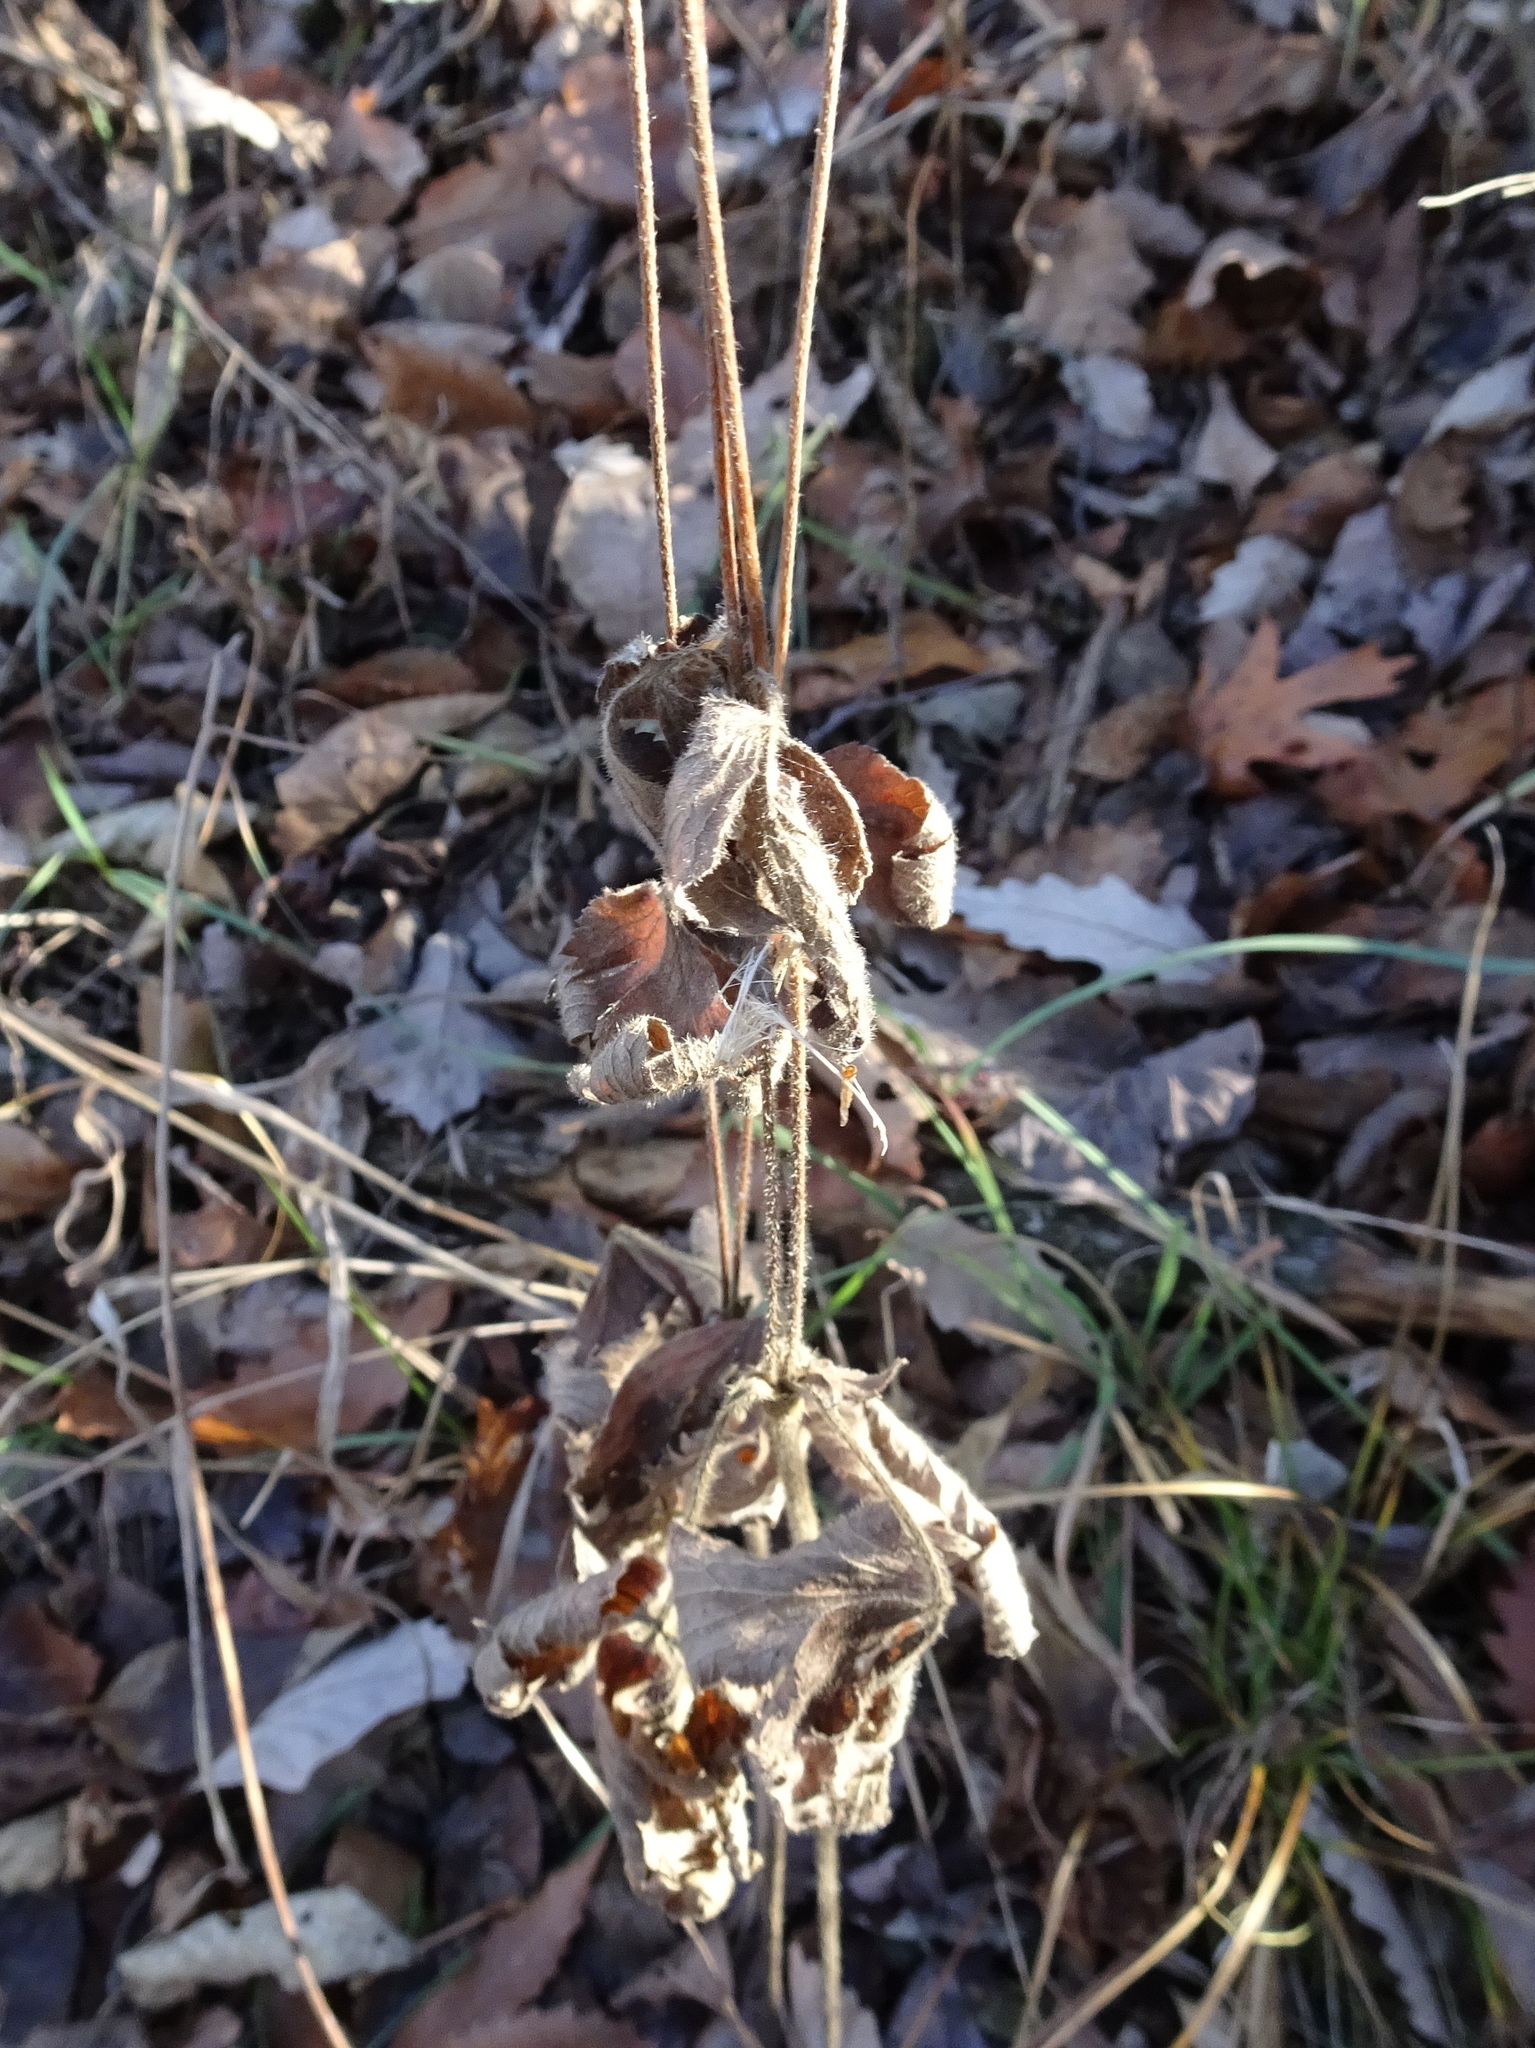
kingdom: Plantae
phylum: Tracheophyta
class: Magnoliopsida
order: Ranunculales
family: Ranunculaceae
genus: Anemone
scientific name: Anemone virginiana
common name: Tall anemone
